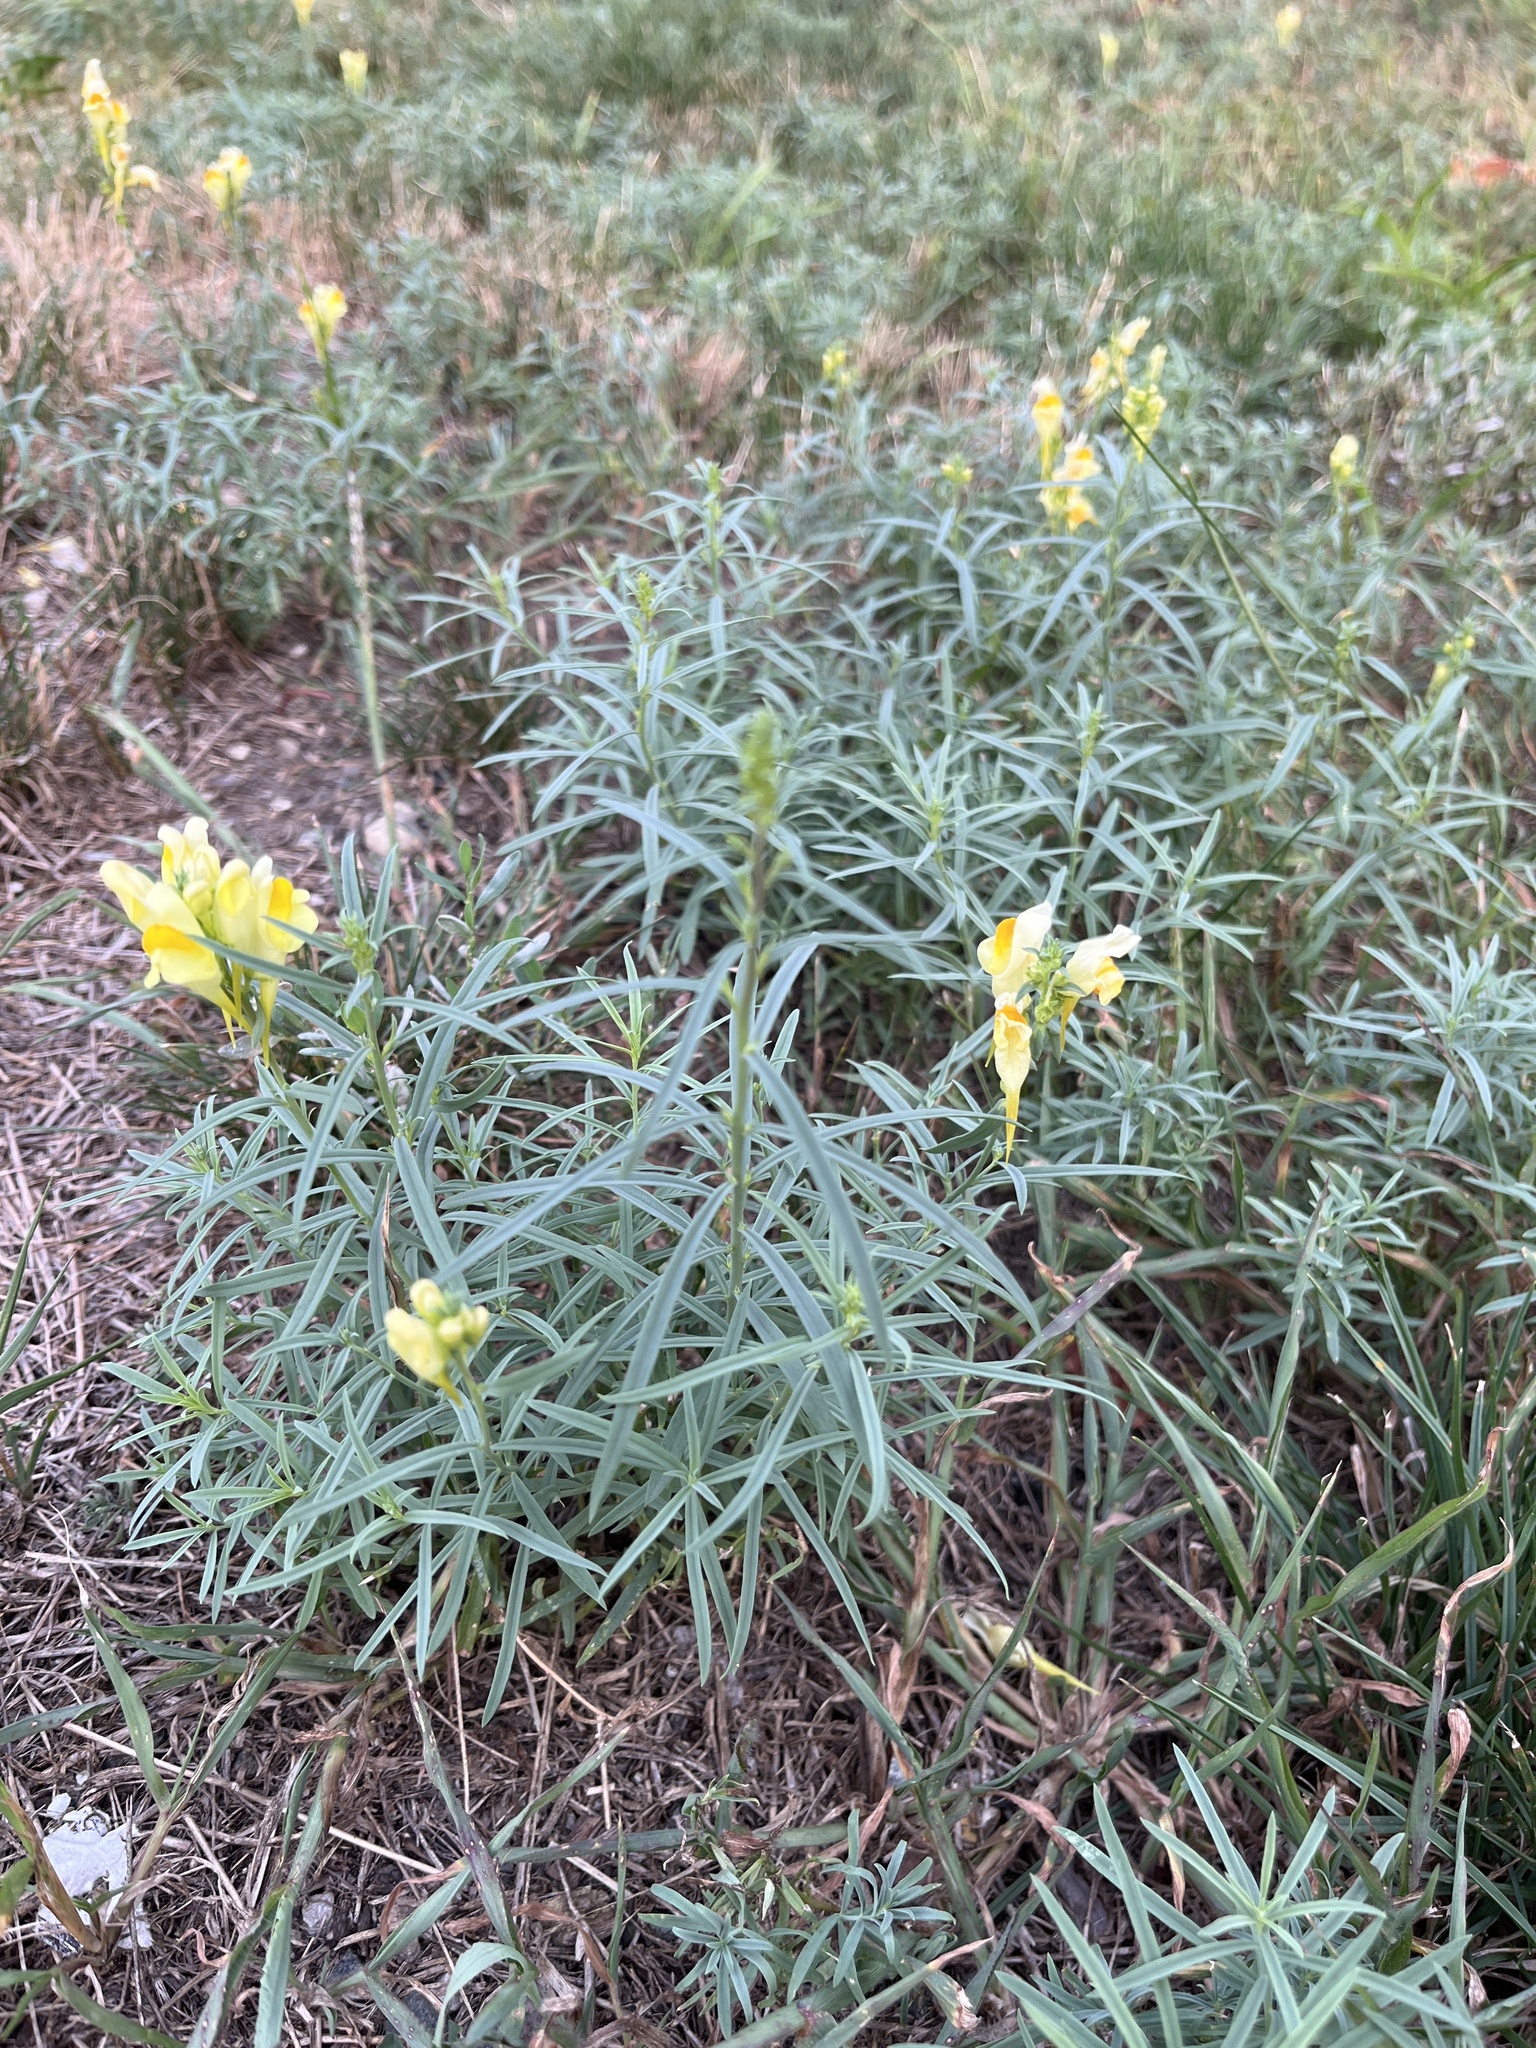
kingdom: Plantae
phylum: Tracheophyta
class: Magnoliopsida
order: Lamiales
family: Plantaginaceae
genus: Linaria
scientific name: Linaria vulgaris
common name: Butter and eggs
